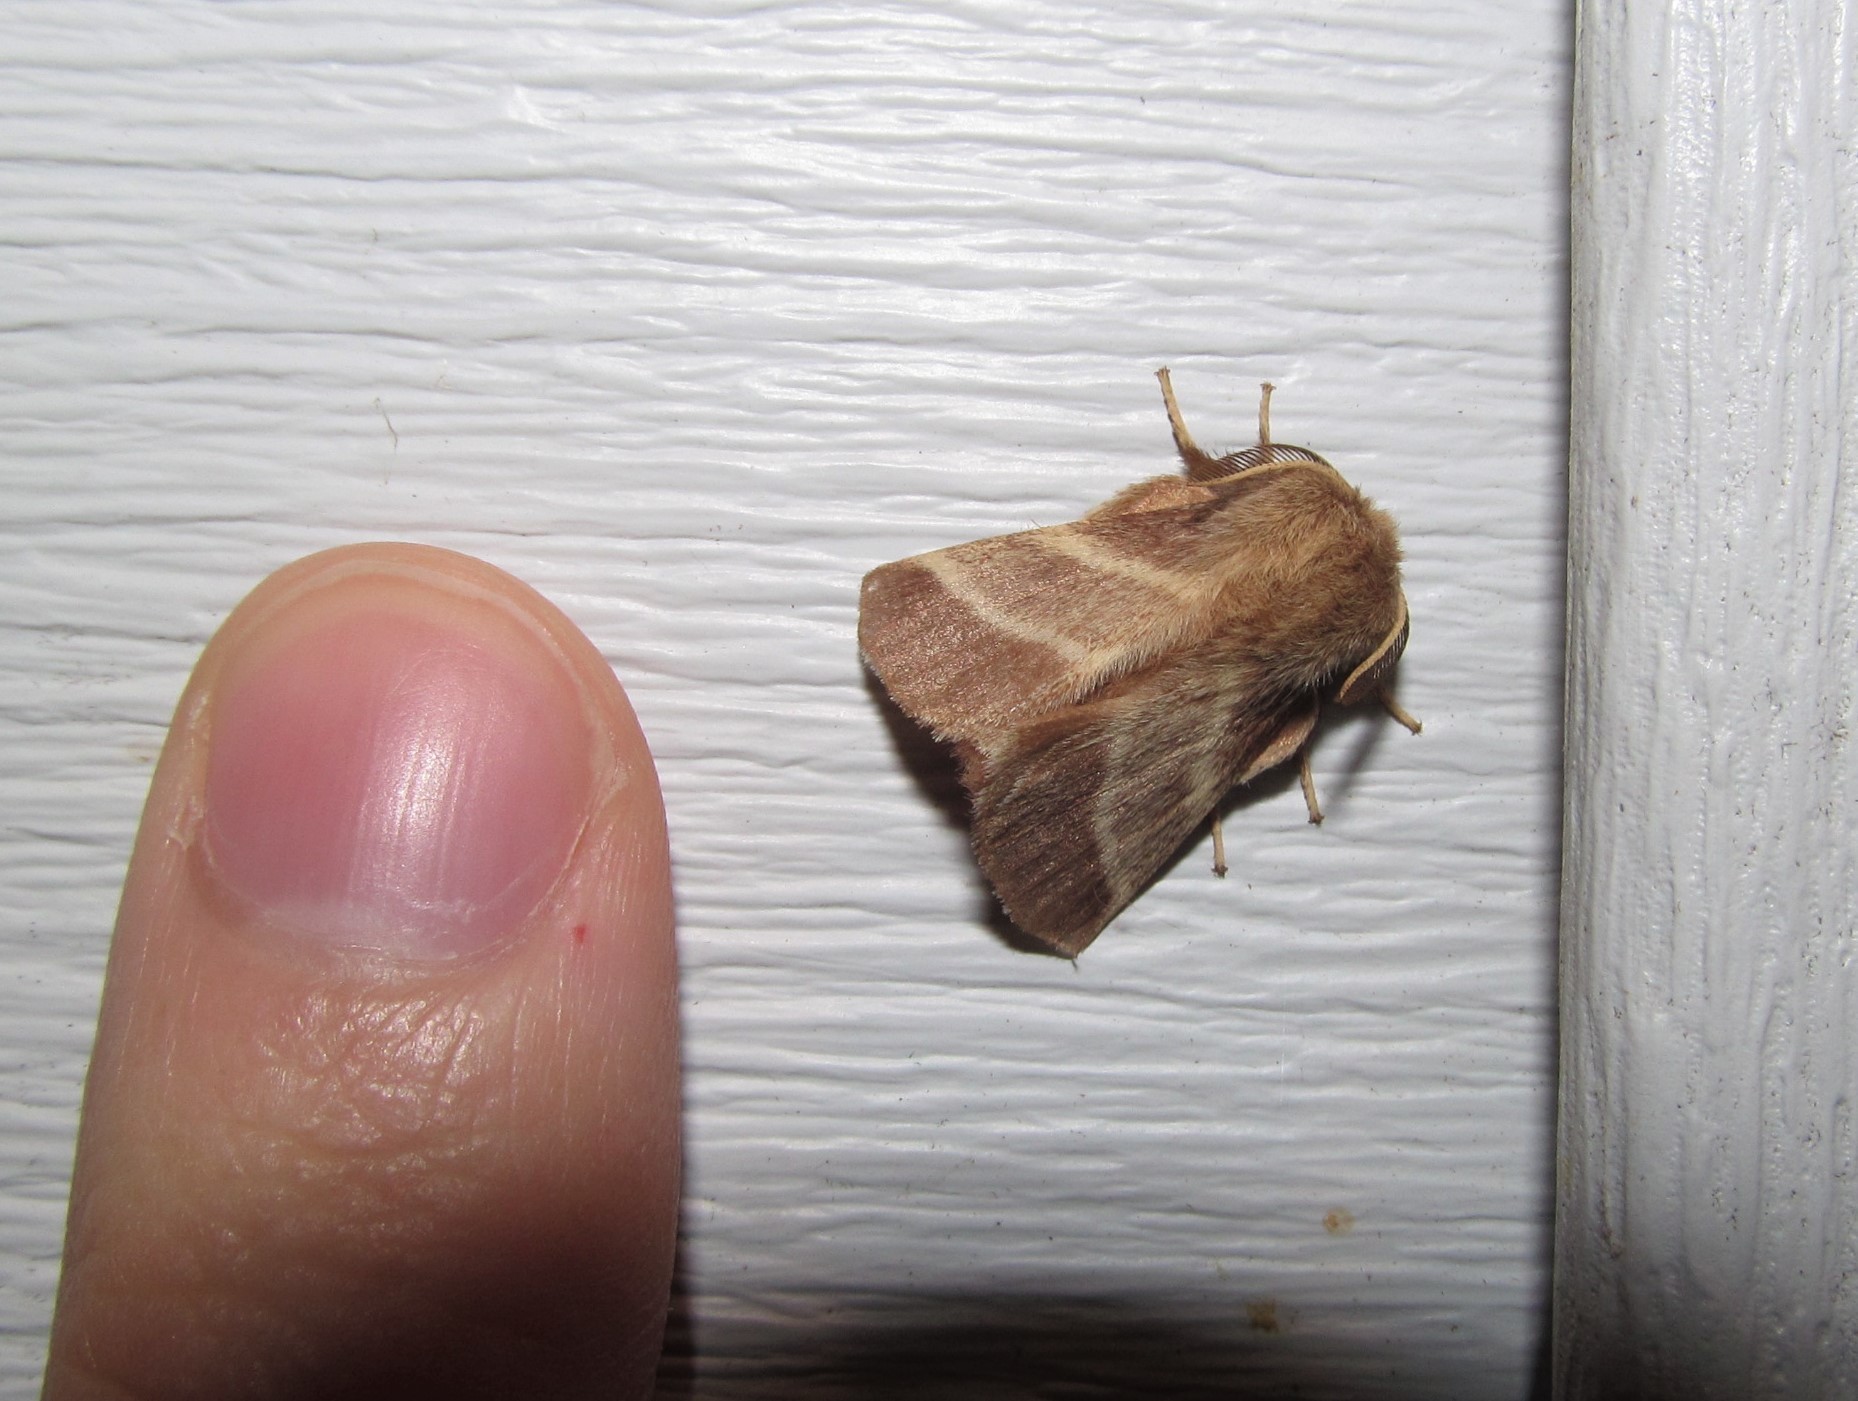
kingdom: Animalia
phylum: Arthropoda
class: Insecta
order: Lepidoptera
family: Lasiocampidae
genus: Malacosoma
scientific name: Malacosoma americana
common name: Eastern tent caterpillar moth
